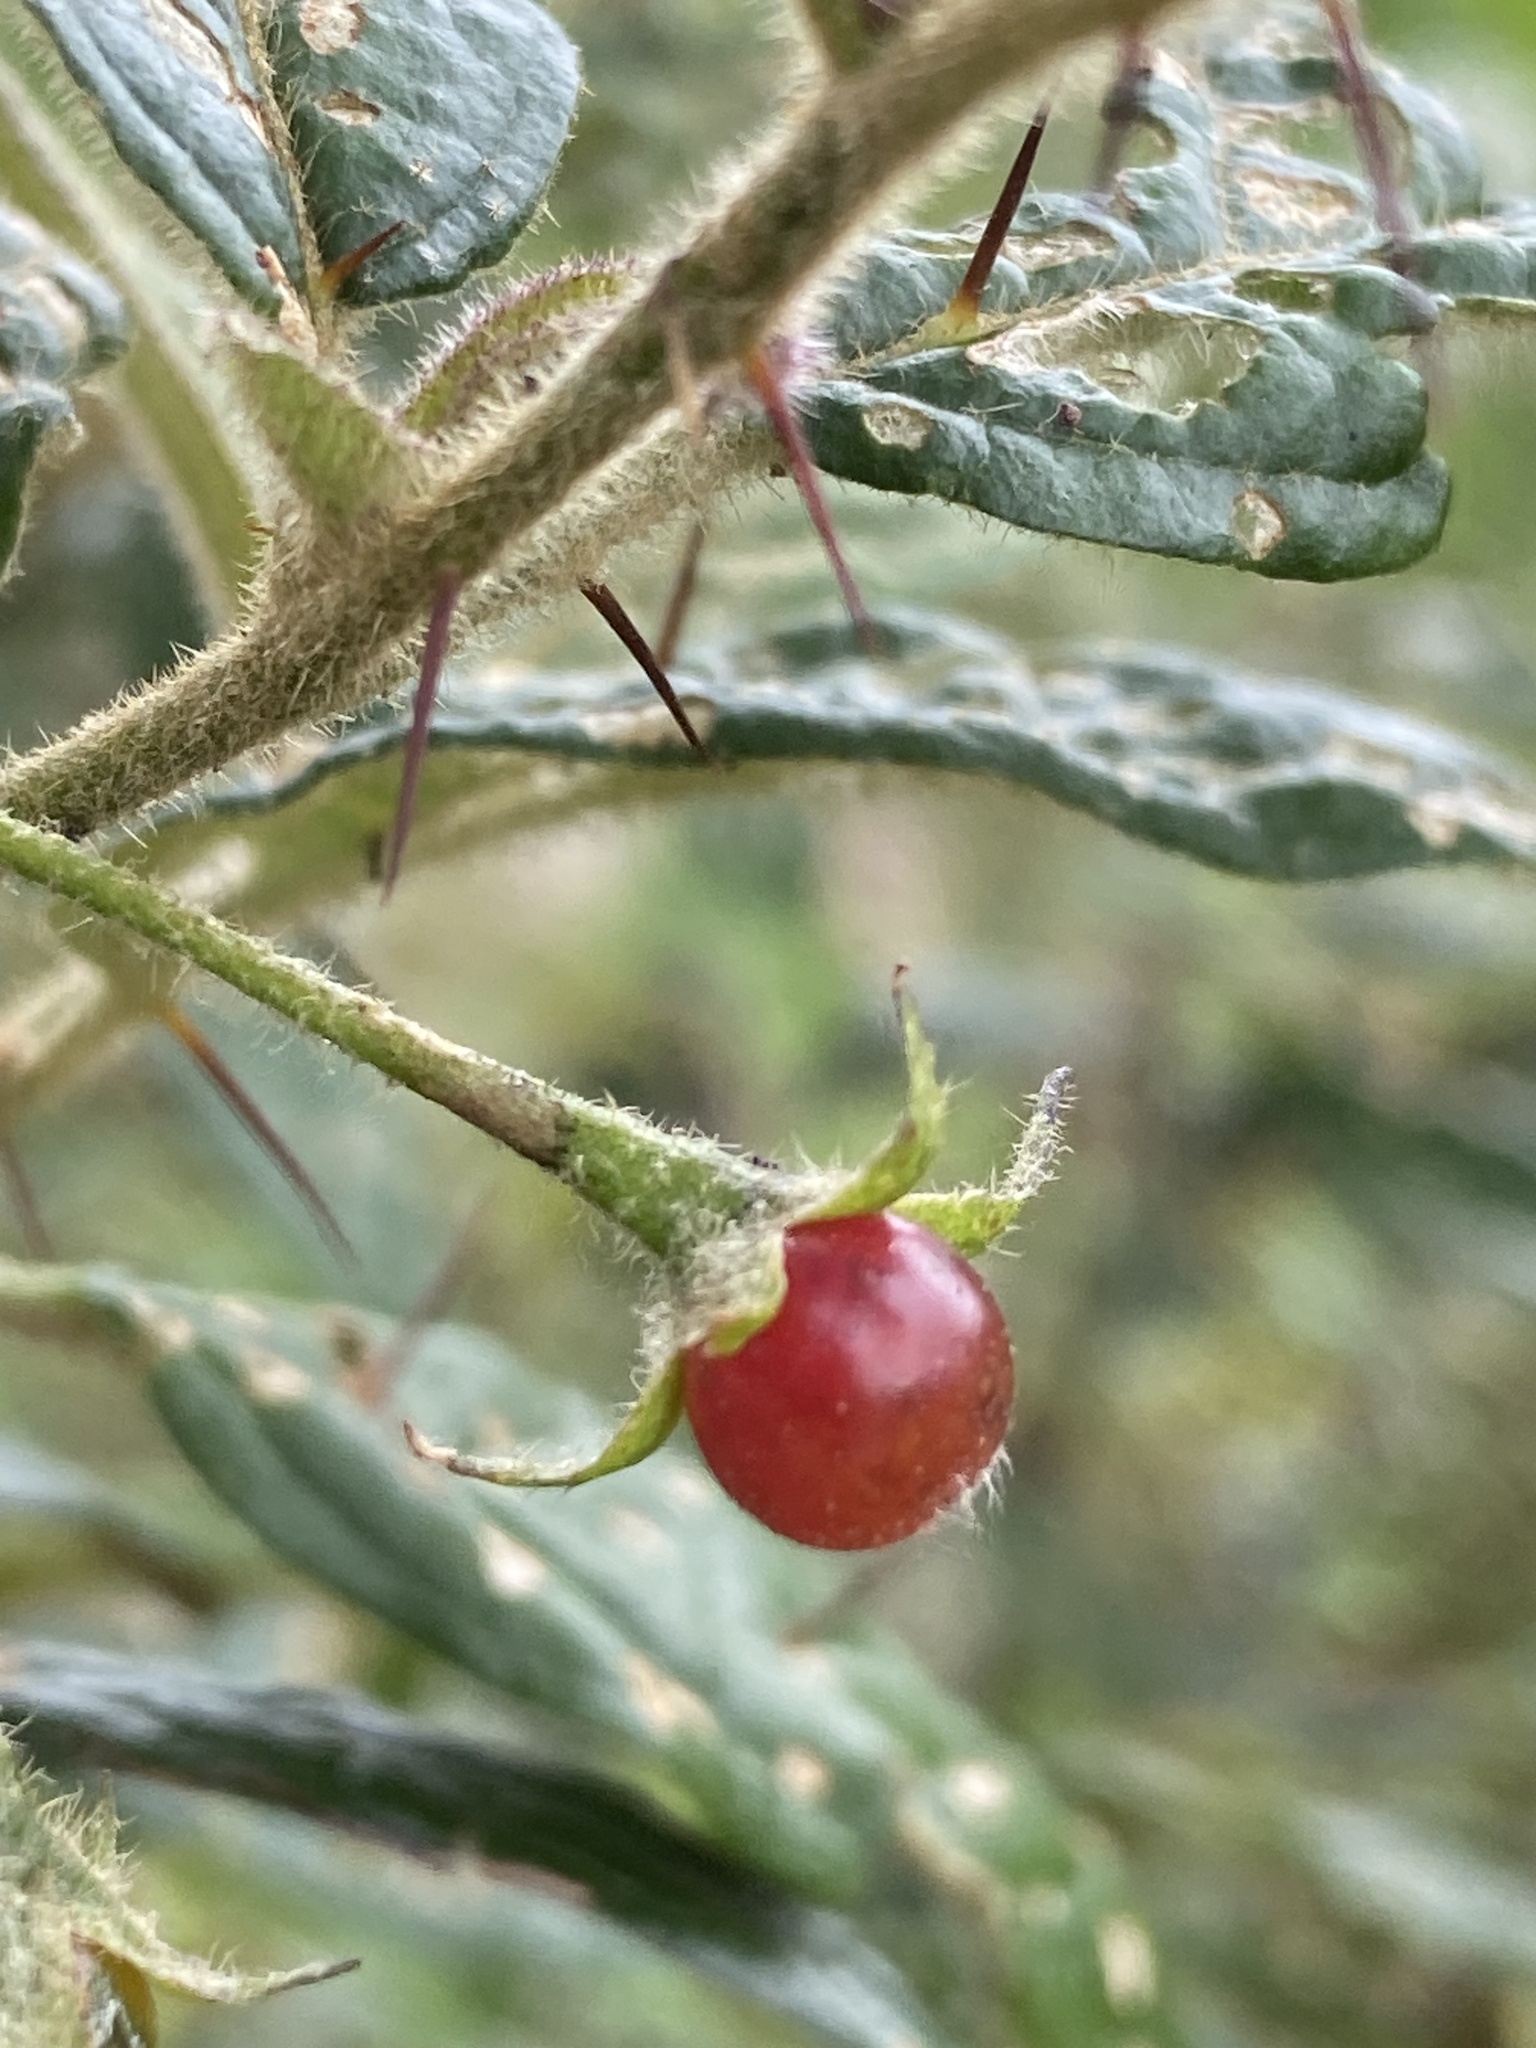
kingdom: Plantae
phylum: Tracheophyta
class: Magnoliopsida
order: Solanales
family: Solanaceae
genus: Solanum
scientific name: Solanum stelligerum
